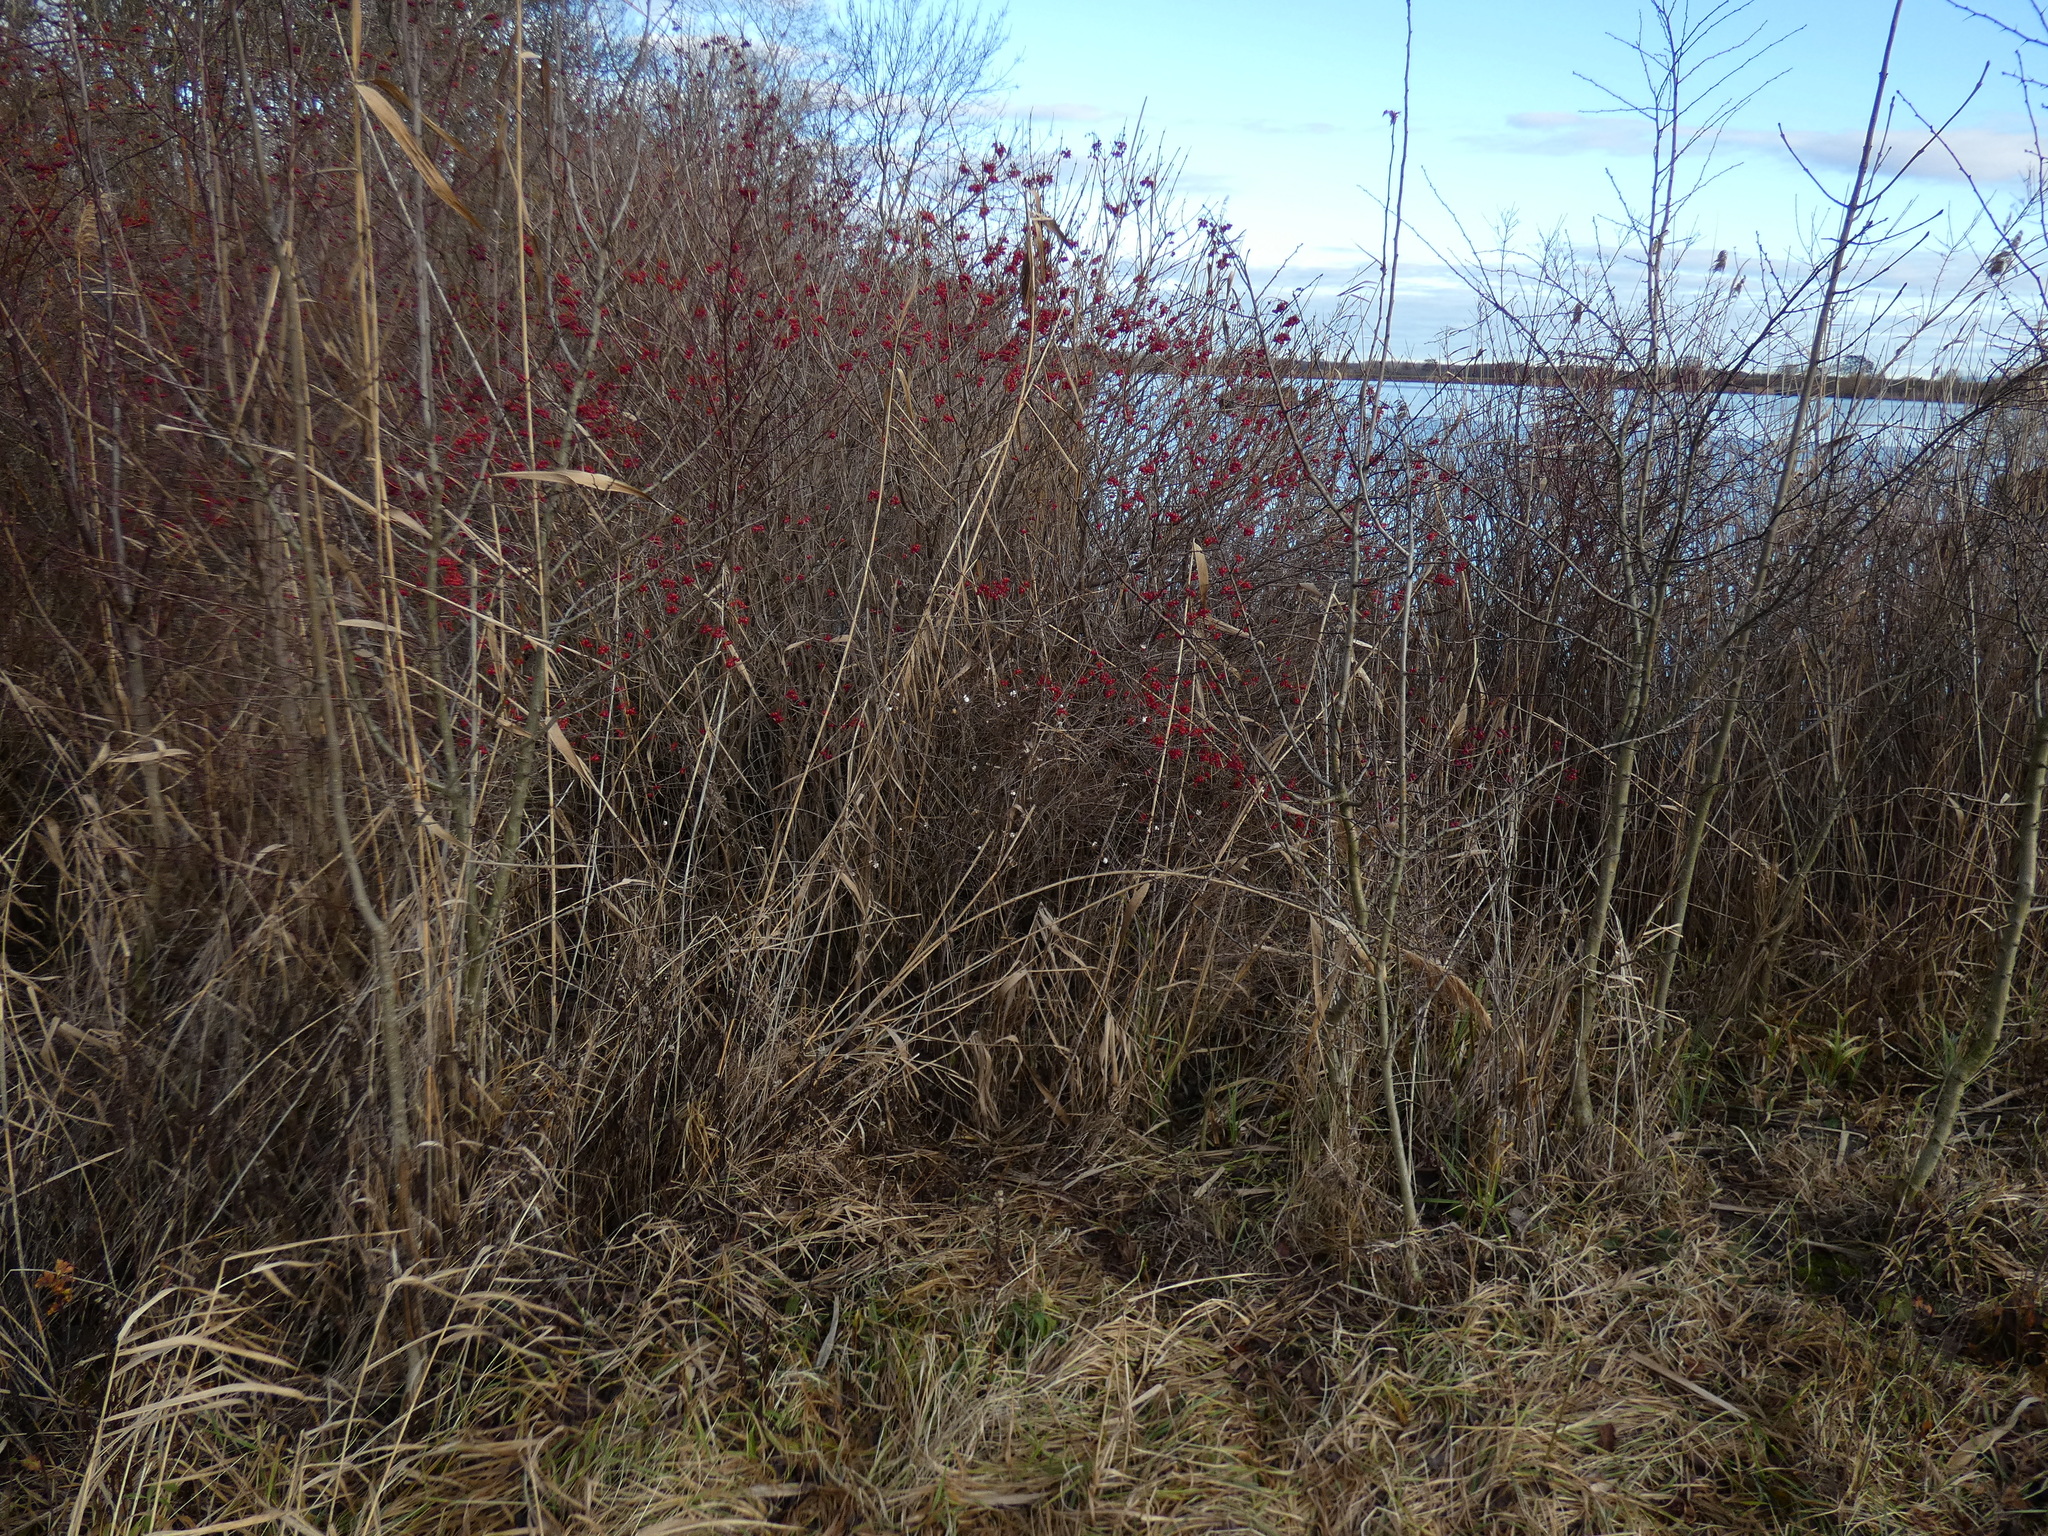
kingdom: Plantae
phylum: Tracheophyta
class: Magnoliopsida
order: Dipsacales
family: Caprifoliaceae
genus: Symphoricarpos
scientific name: Symphoricarpos albus
